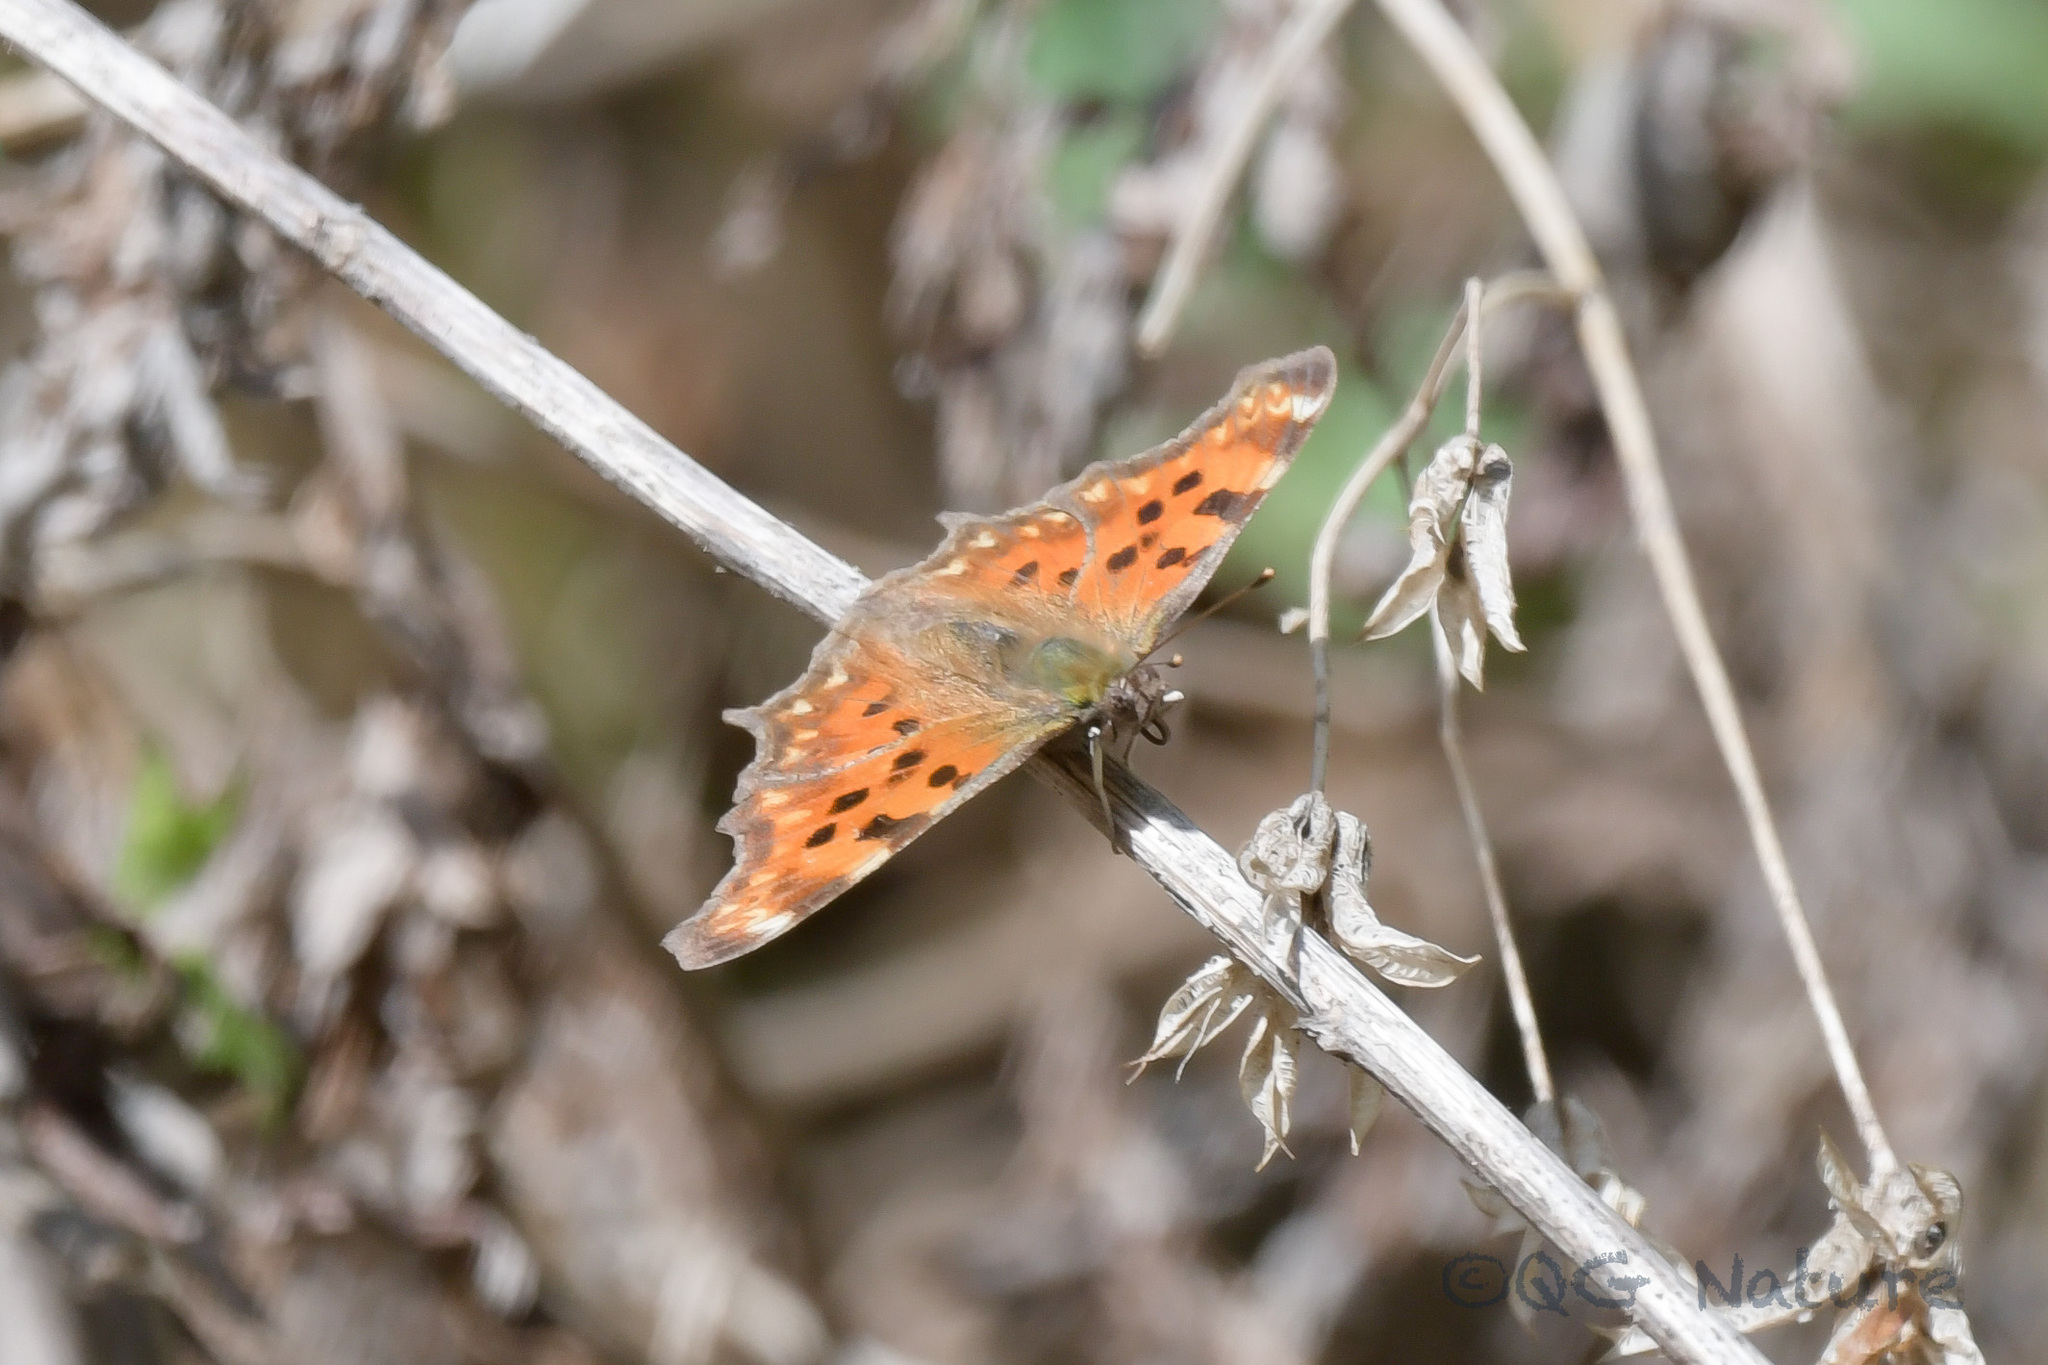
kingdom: Animalia
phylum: Arthropoda
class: Insecta
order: Lepidoptera
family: Nymphalidae
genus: Polygonia
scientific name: Polygonia c-album
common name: Comma
